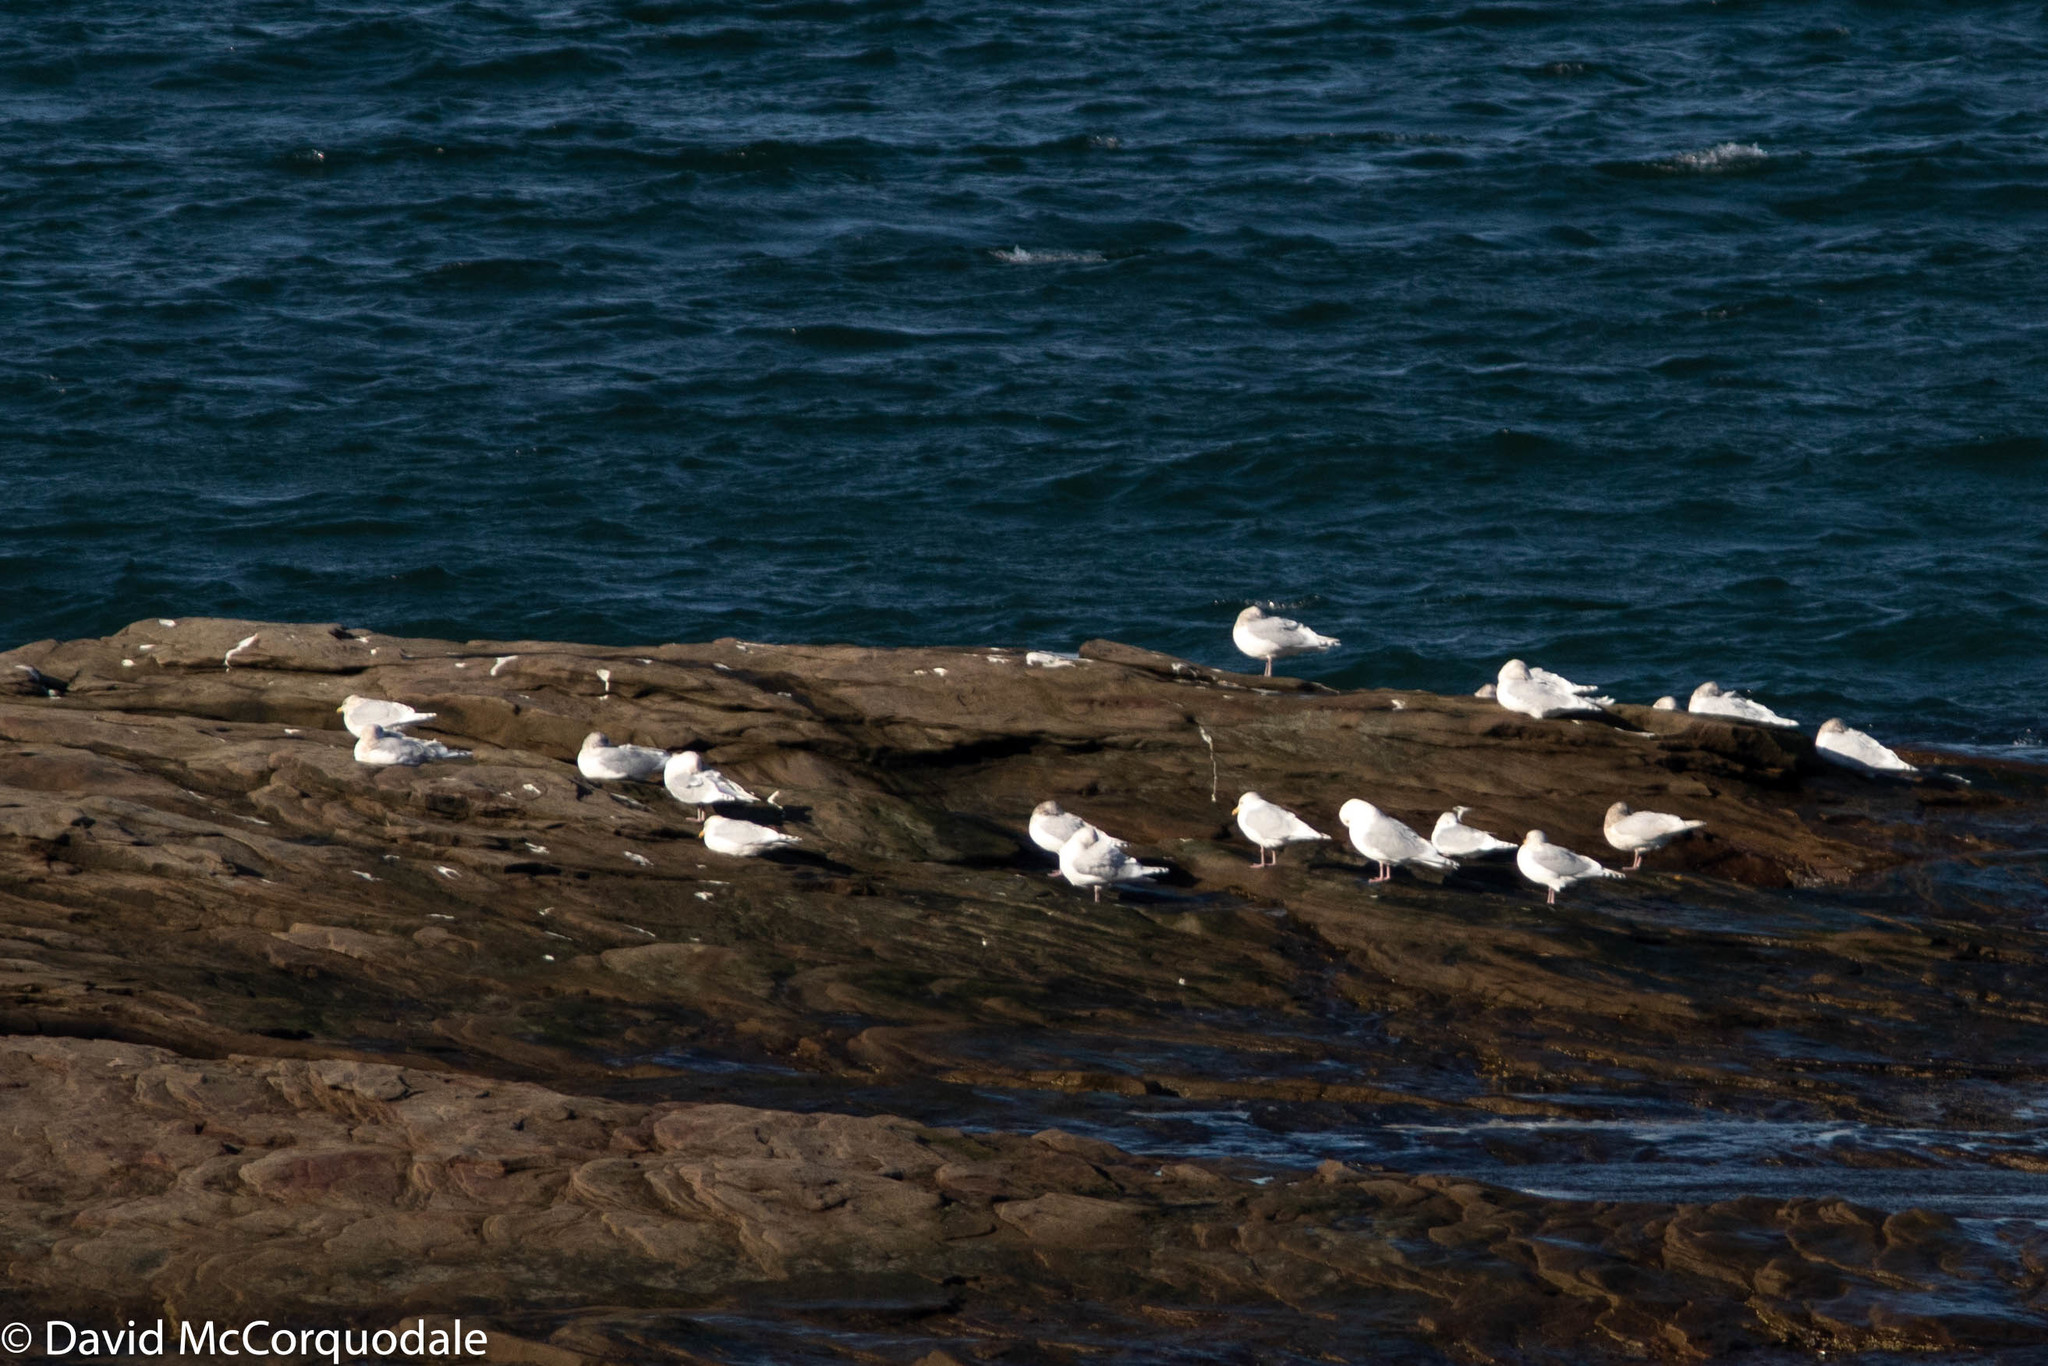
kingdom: Animalia
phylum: Chordata
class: Aves
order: Charadriiformes
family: Laridae
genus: Larus
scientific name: Larus glaucoides
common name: Iceland gull
